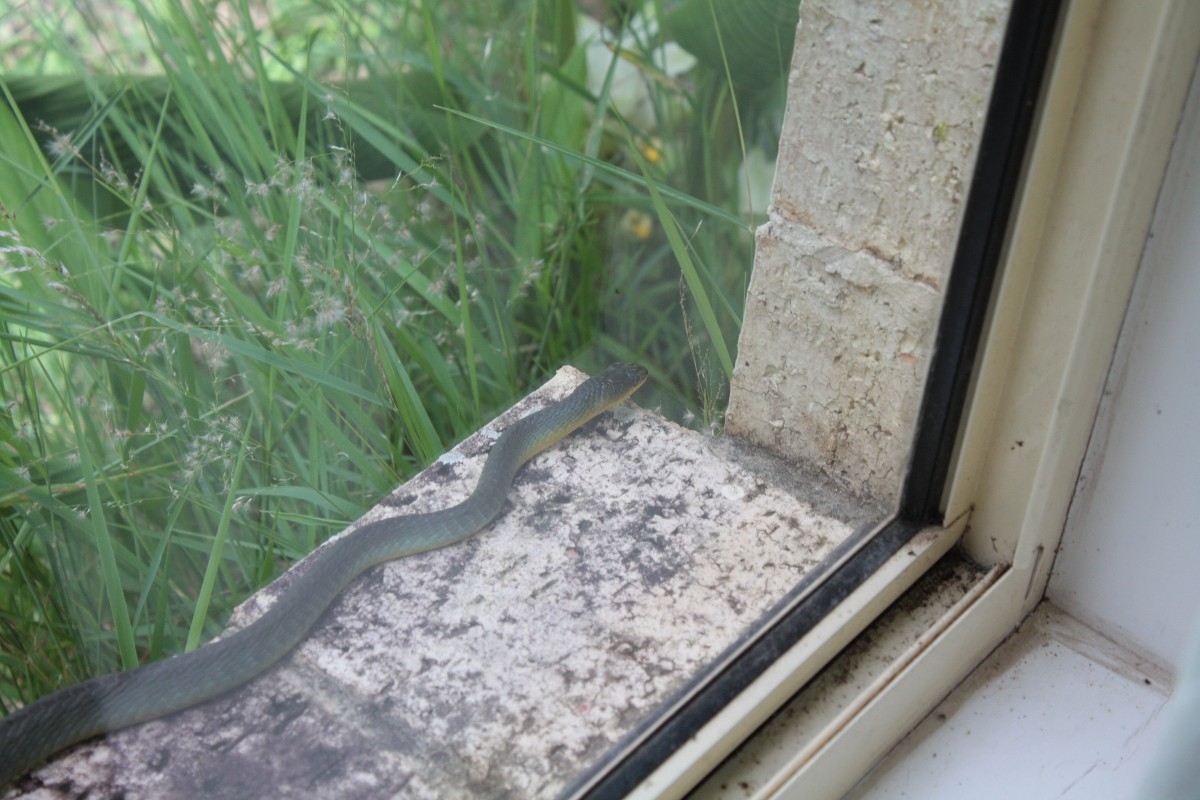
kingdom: Animalia
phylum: Chordata
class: Squamata
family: Colubridae
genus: Dendrelaphis
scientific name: Dendrelaphis punctulatus
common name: Common tree snake
